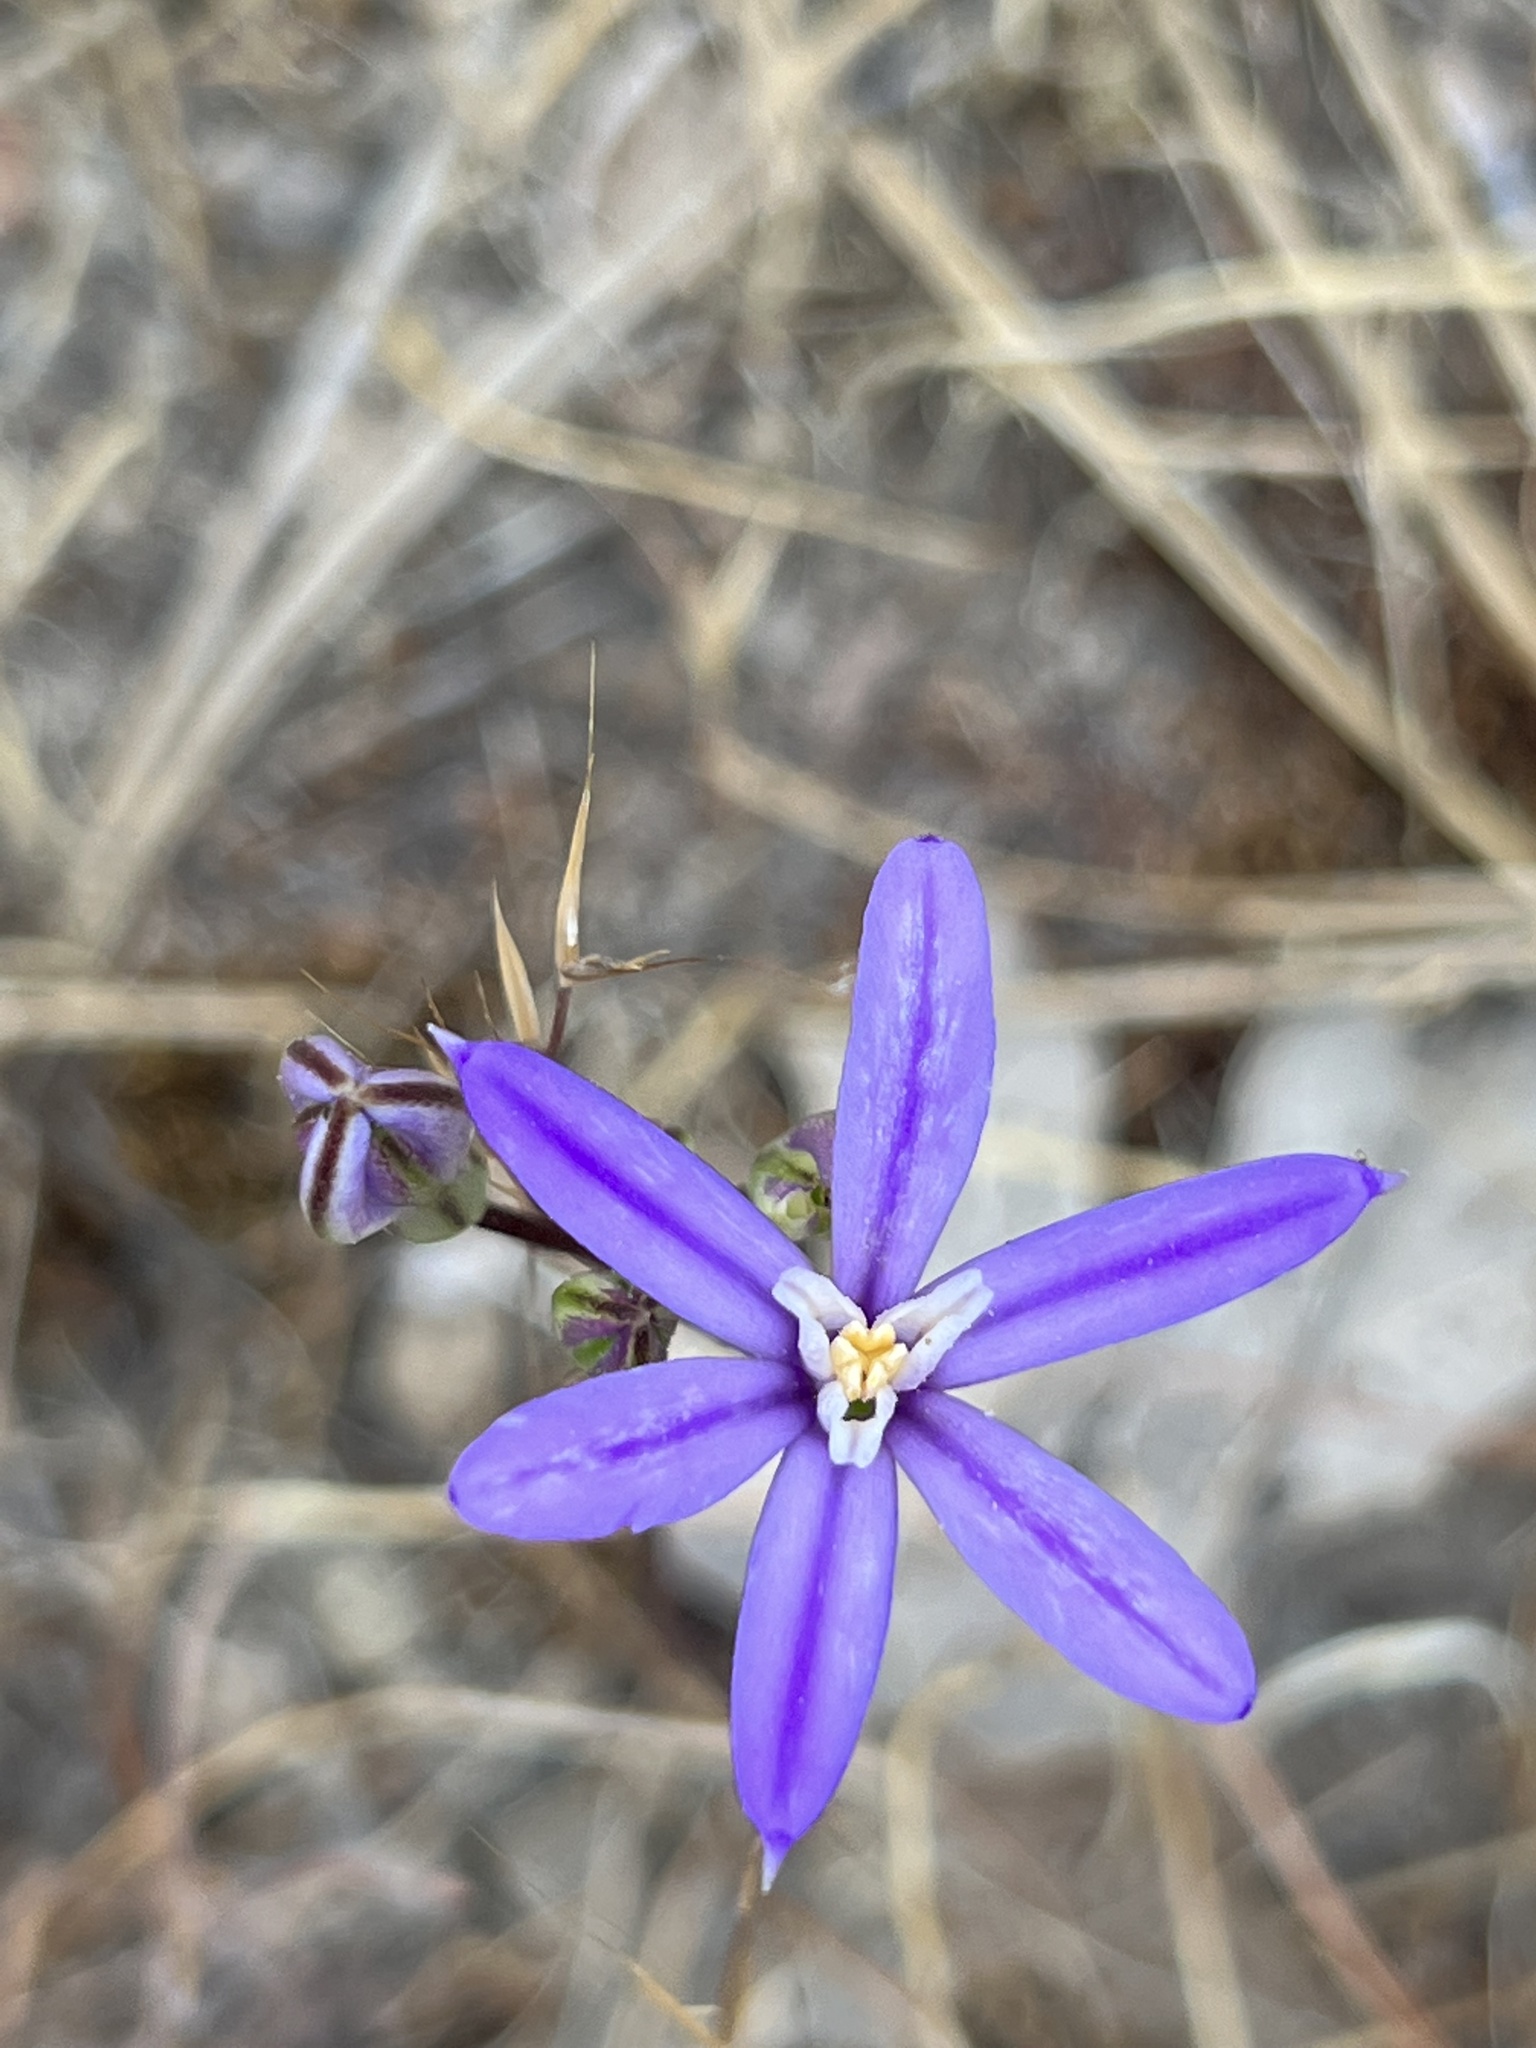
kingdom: Plantae
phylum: Tracheophyta
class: Liliopsida
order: Asparagales
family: Asparagaceae
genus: Brodiaea
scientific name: Brodiaea minor
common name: Dwarf brodiaea
